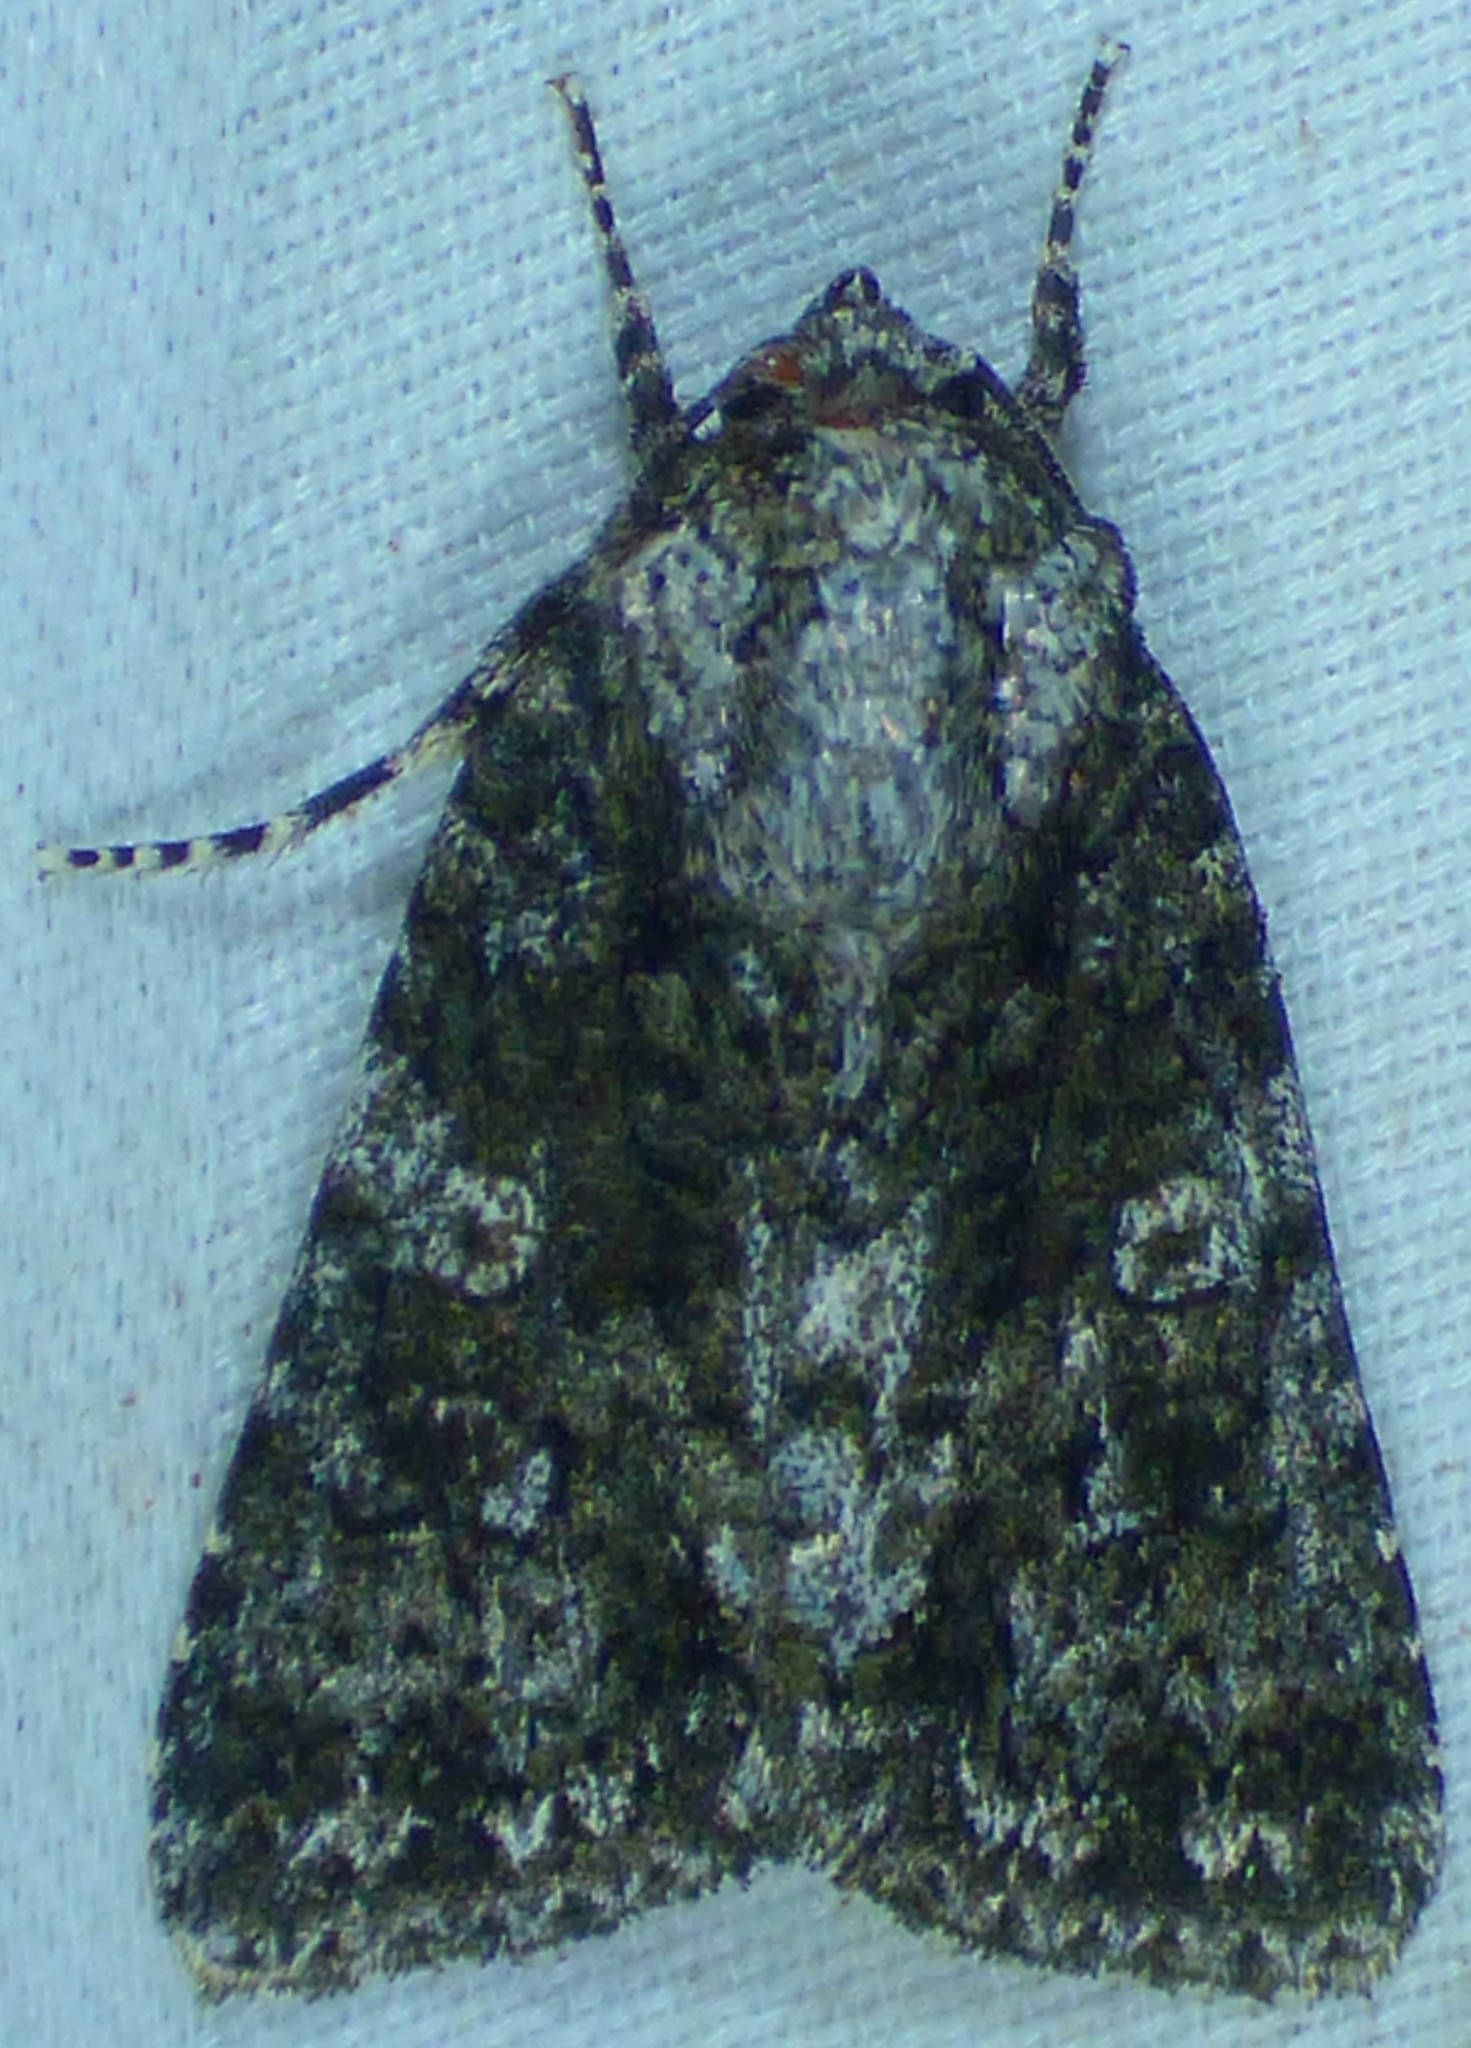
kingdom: Animalia
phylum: Arthropoda
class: Insecta
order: Lepidoptera
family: Noctuidae
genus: Acronicta
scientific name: Acronicta afflicta
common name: Afflicted dagger moth
